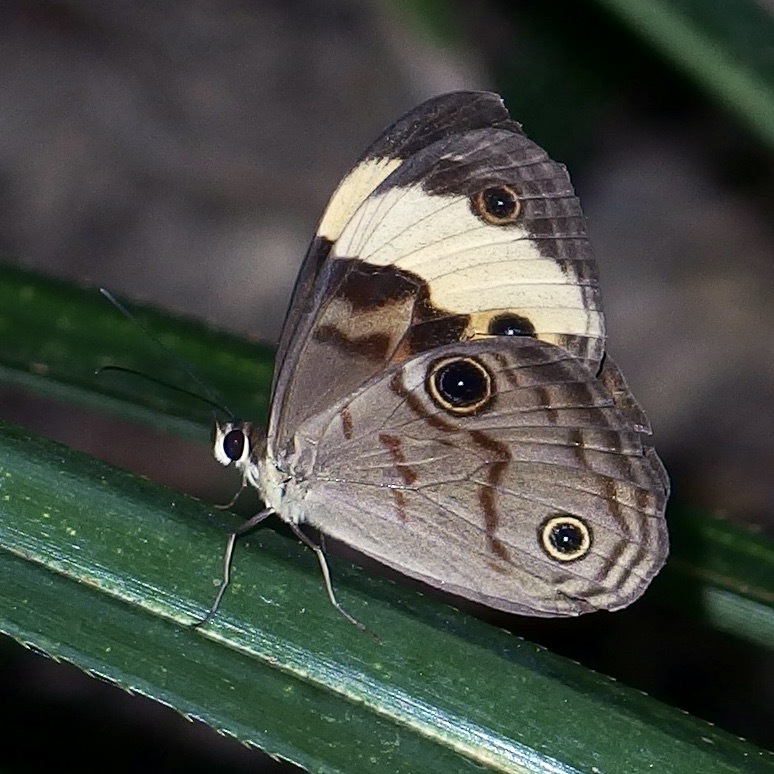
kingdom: Animalia
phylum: Arthropoda
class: Insecta
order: Lepidoptera
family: Nymphalidae
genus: Tisiphone
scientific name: Tisiphone helena
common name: Northern sword-grass brown
